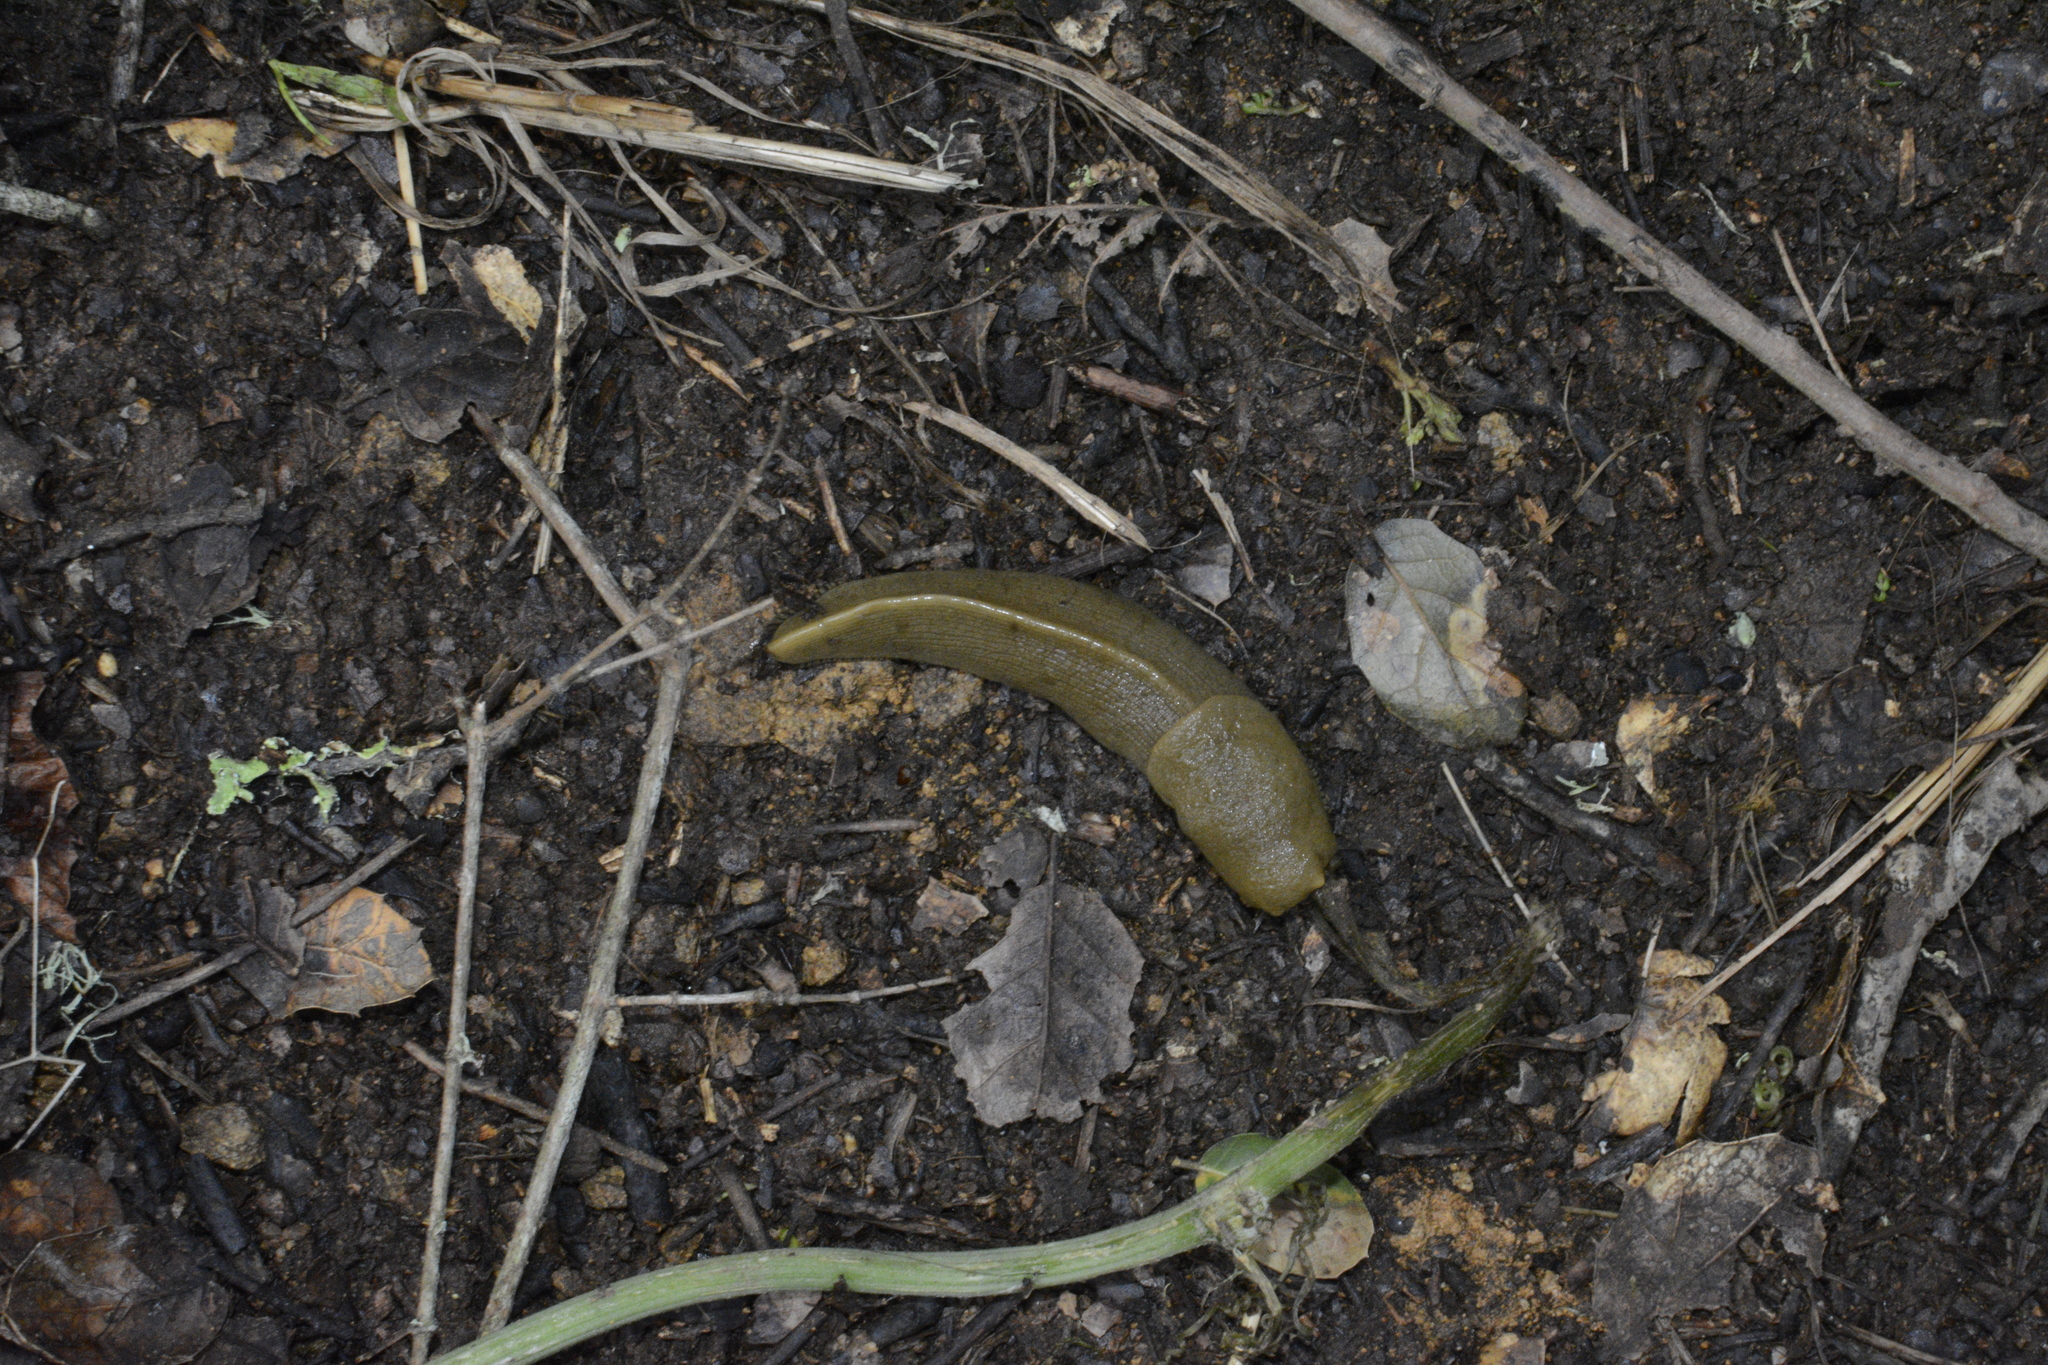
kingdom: Animalia
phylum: Mollusca
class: Gastropoda
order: Stylommatophora
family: Ariolimacidae
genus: Ariolimax
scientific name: Ariolimax buttoni
